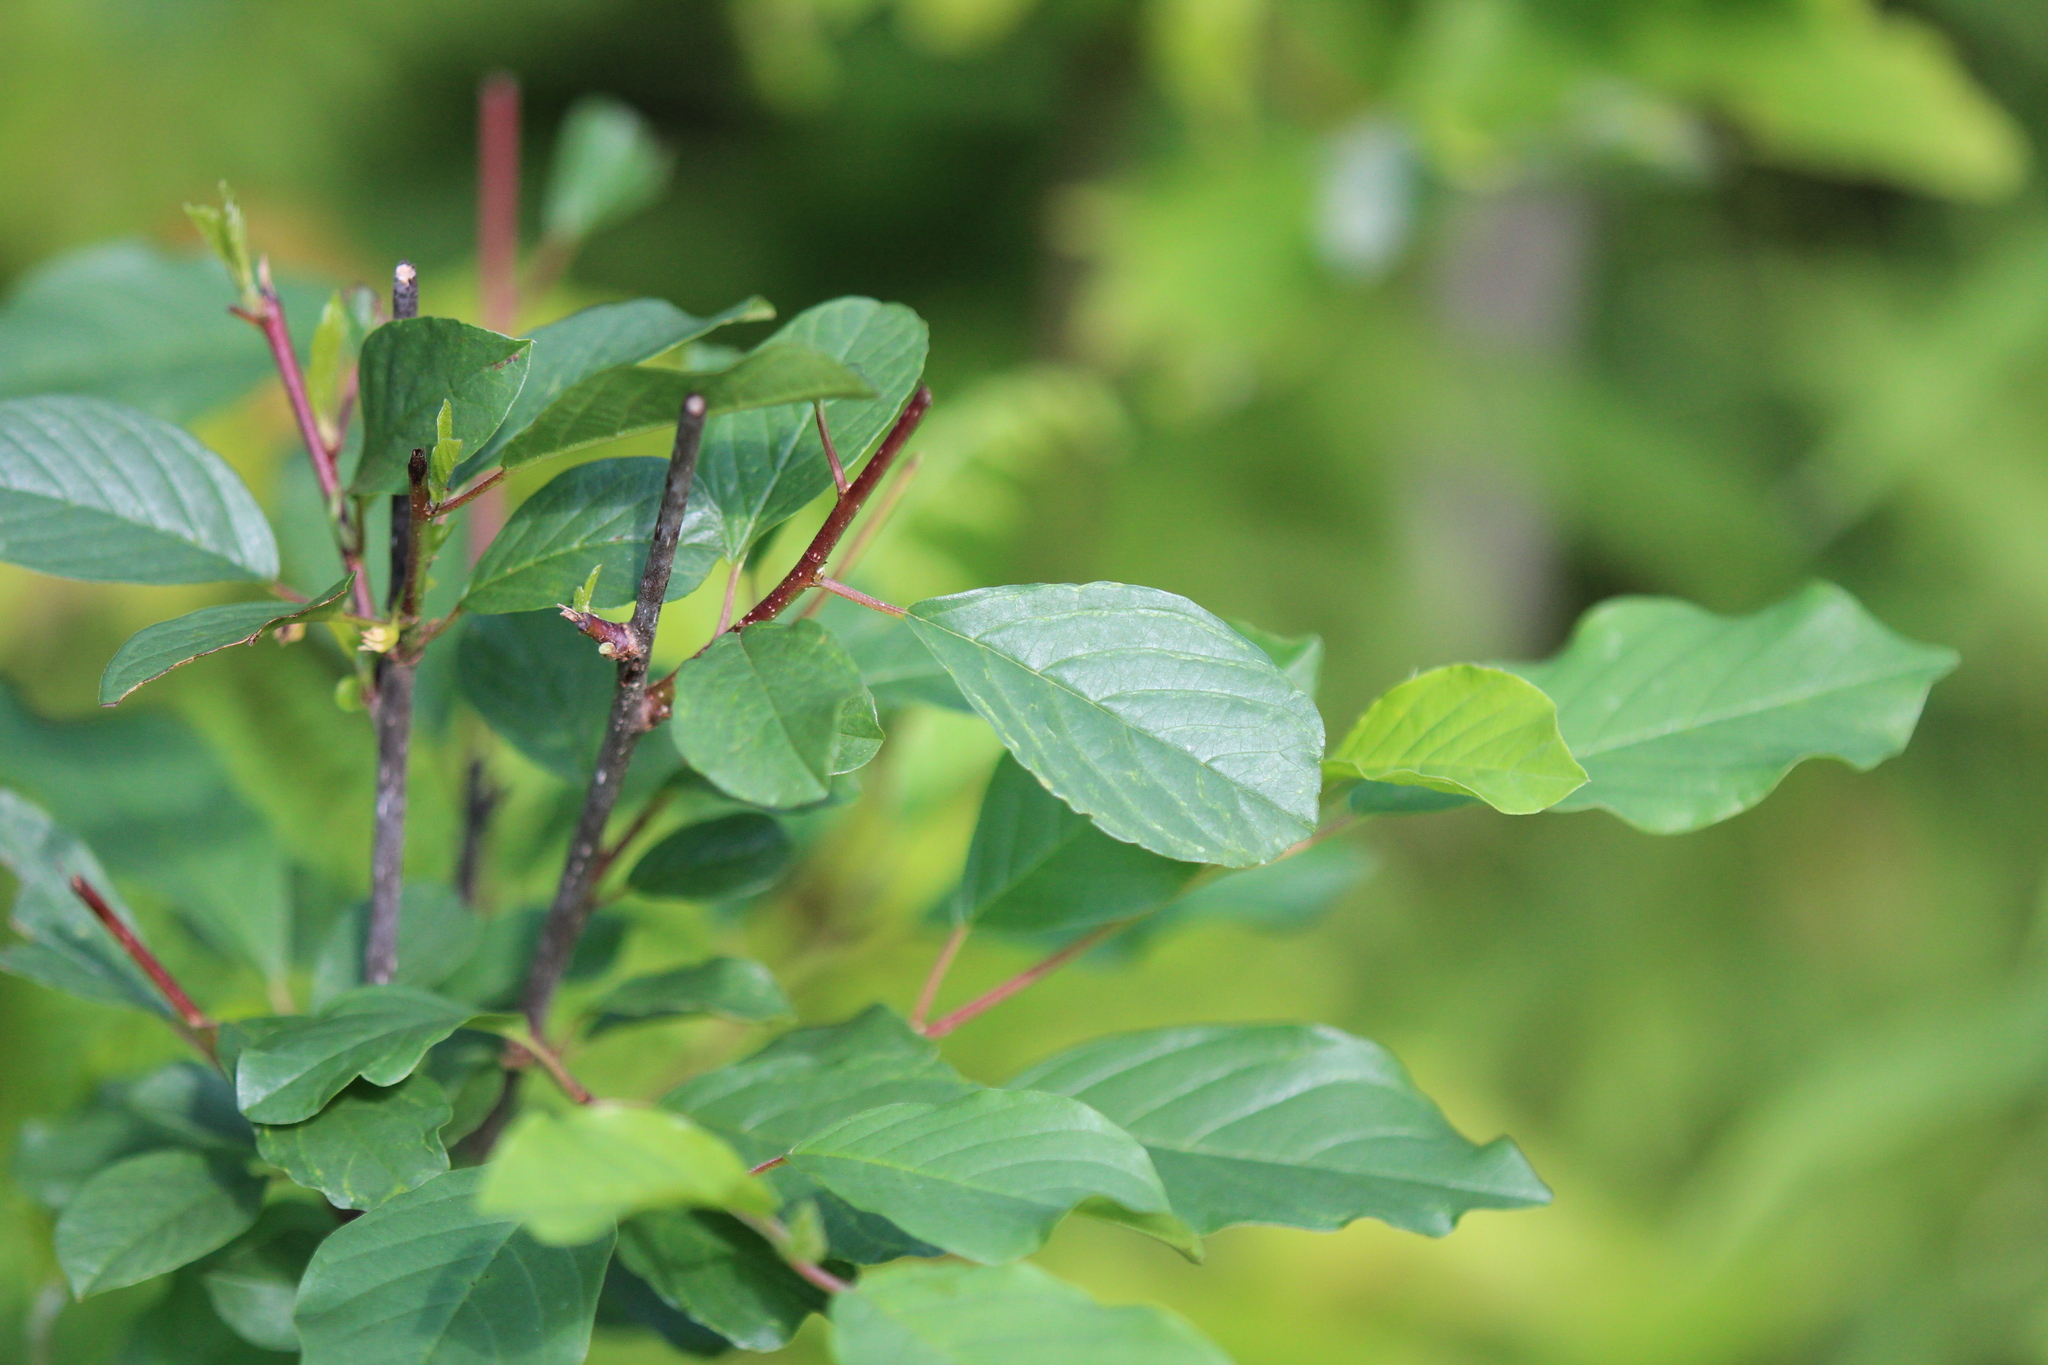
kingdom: Plantae
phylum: Tracheophyta
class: Magnoliopsida
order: Rosales
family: Rhamnaceae
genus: Frangula
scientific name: Frangula alnus
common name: Alder buckthorn
